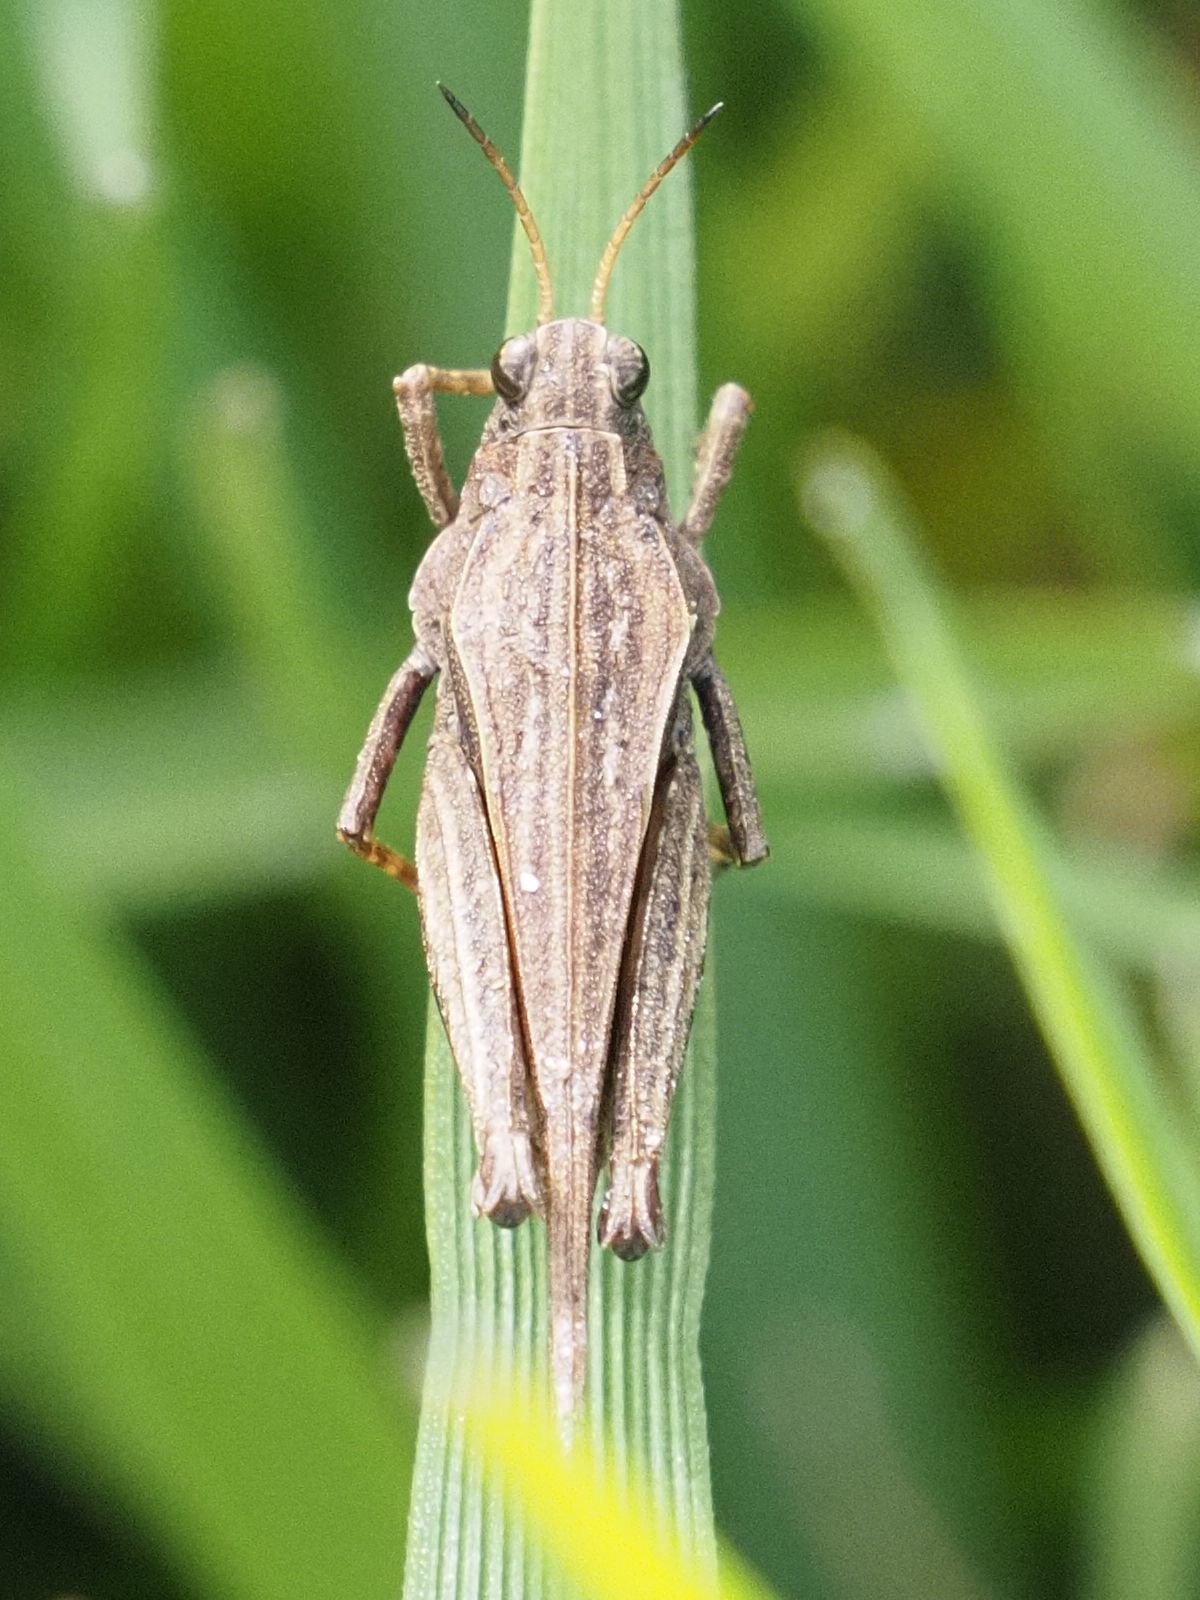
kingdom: Animalia
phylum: Arthropoda
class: Insecta
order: Orthoptera
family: Tetrigidae
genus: Tetrix
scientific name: Tetrix subulata
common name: Slender ground-hopper
